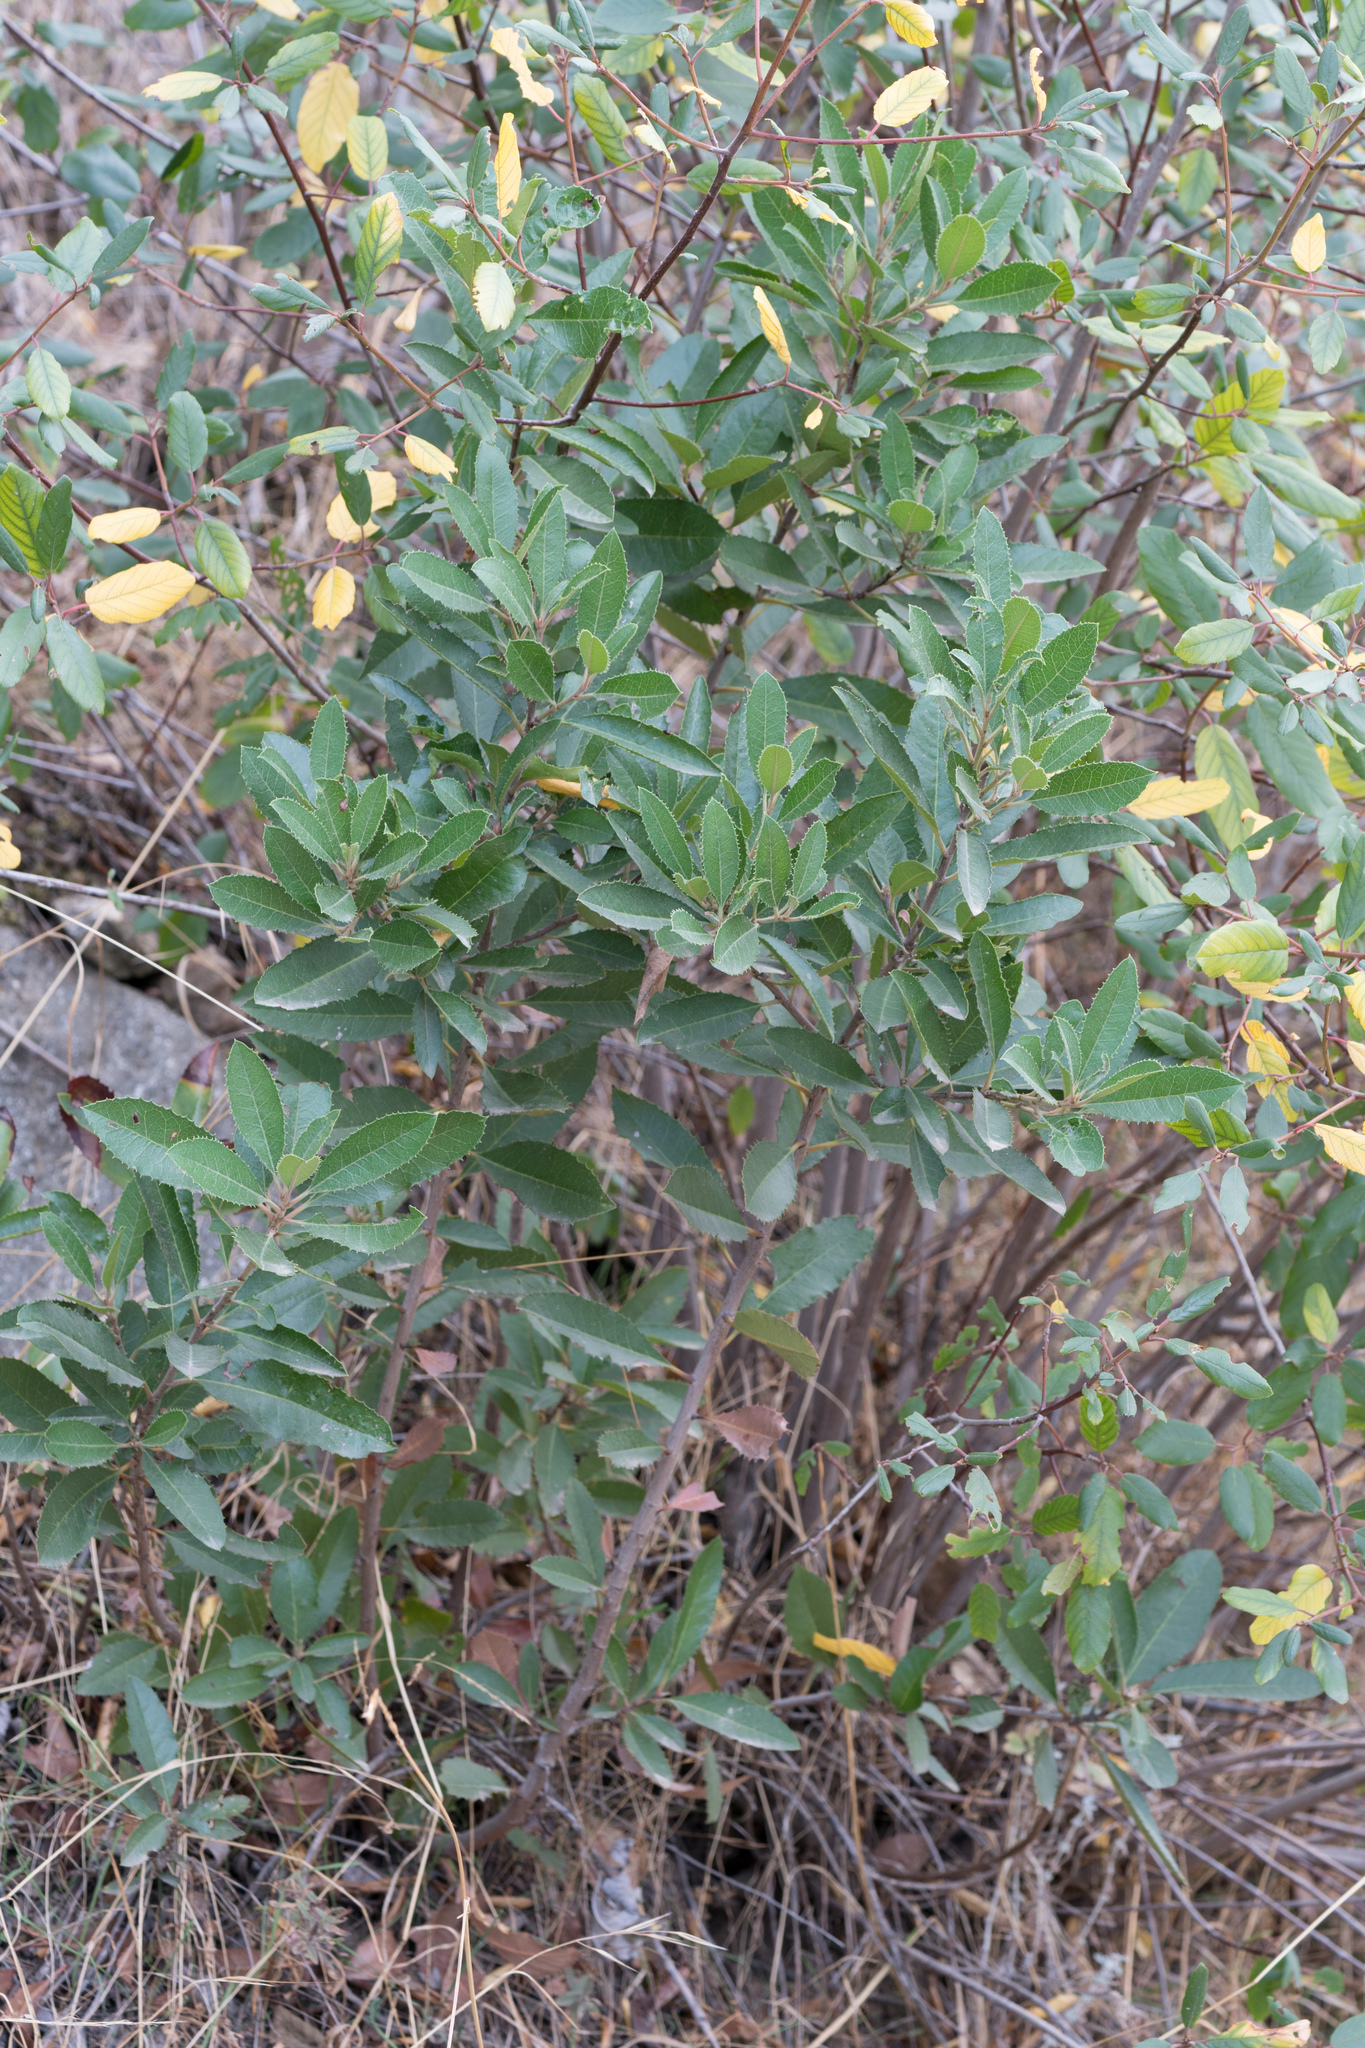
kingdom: Plantae
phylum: Tracheophyta
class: Magnoliopsida
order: Rosales
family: Rosaceae
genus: Heteromeles
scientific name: Heteromeles arbutifolia
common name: California-holly
